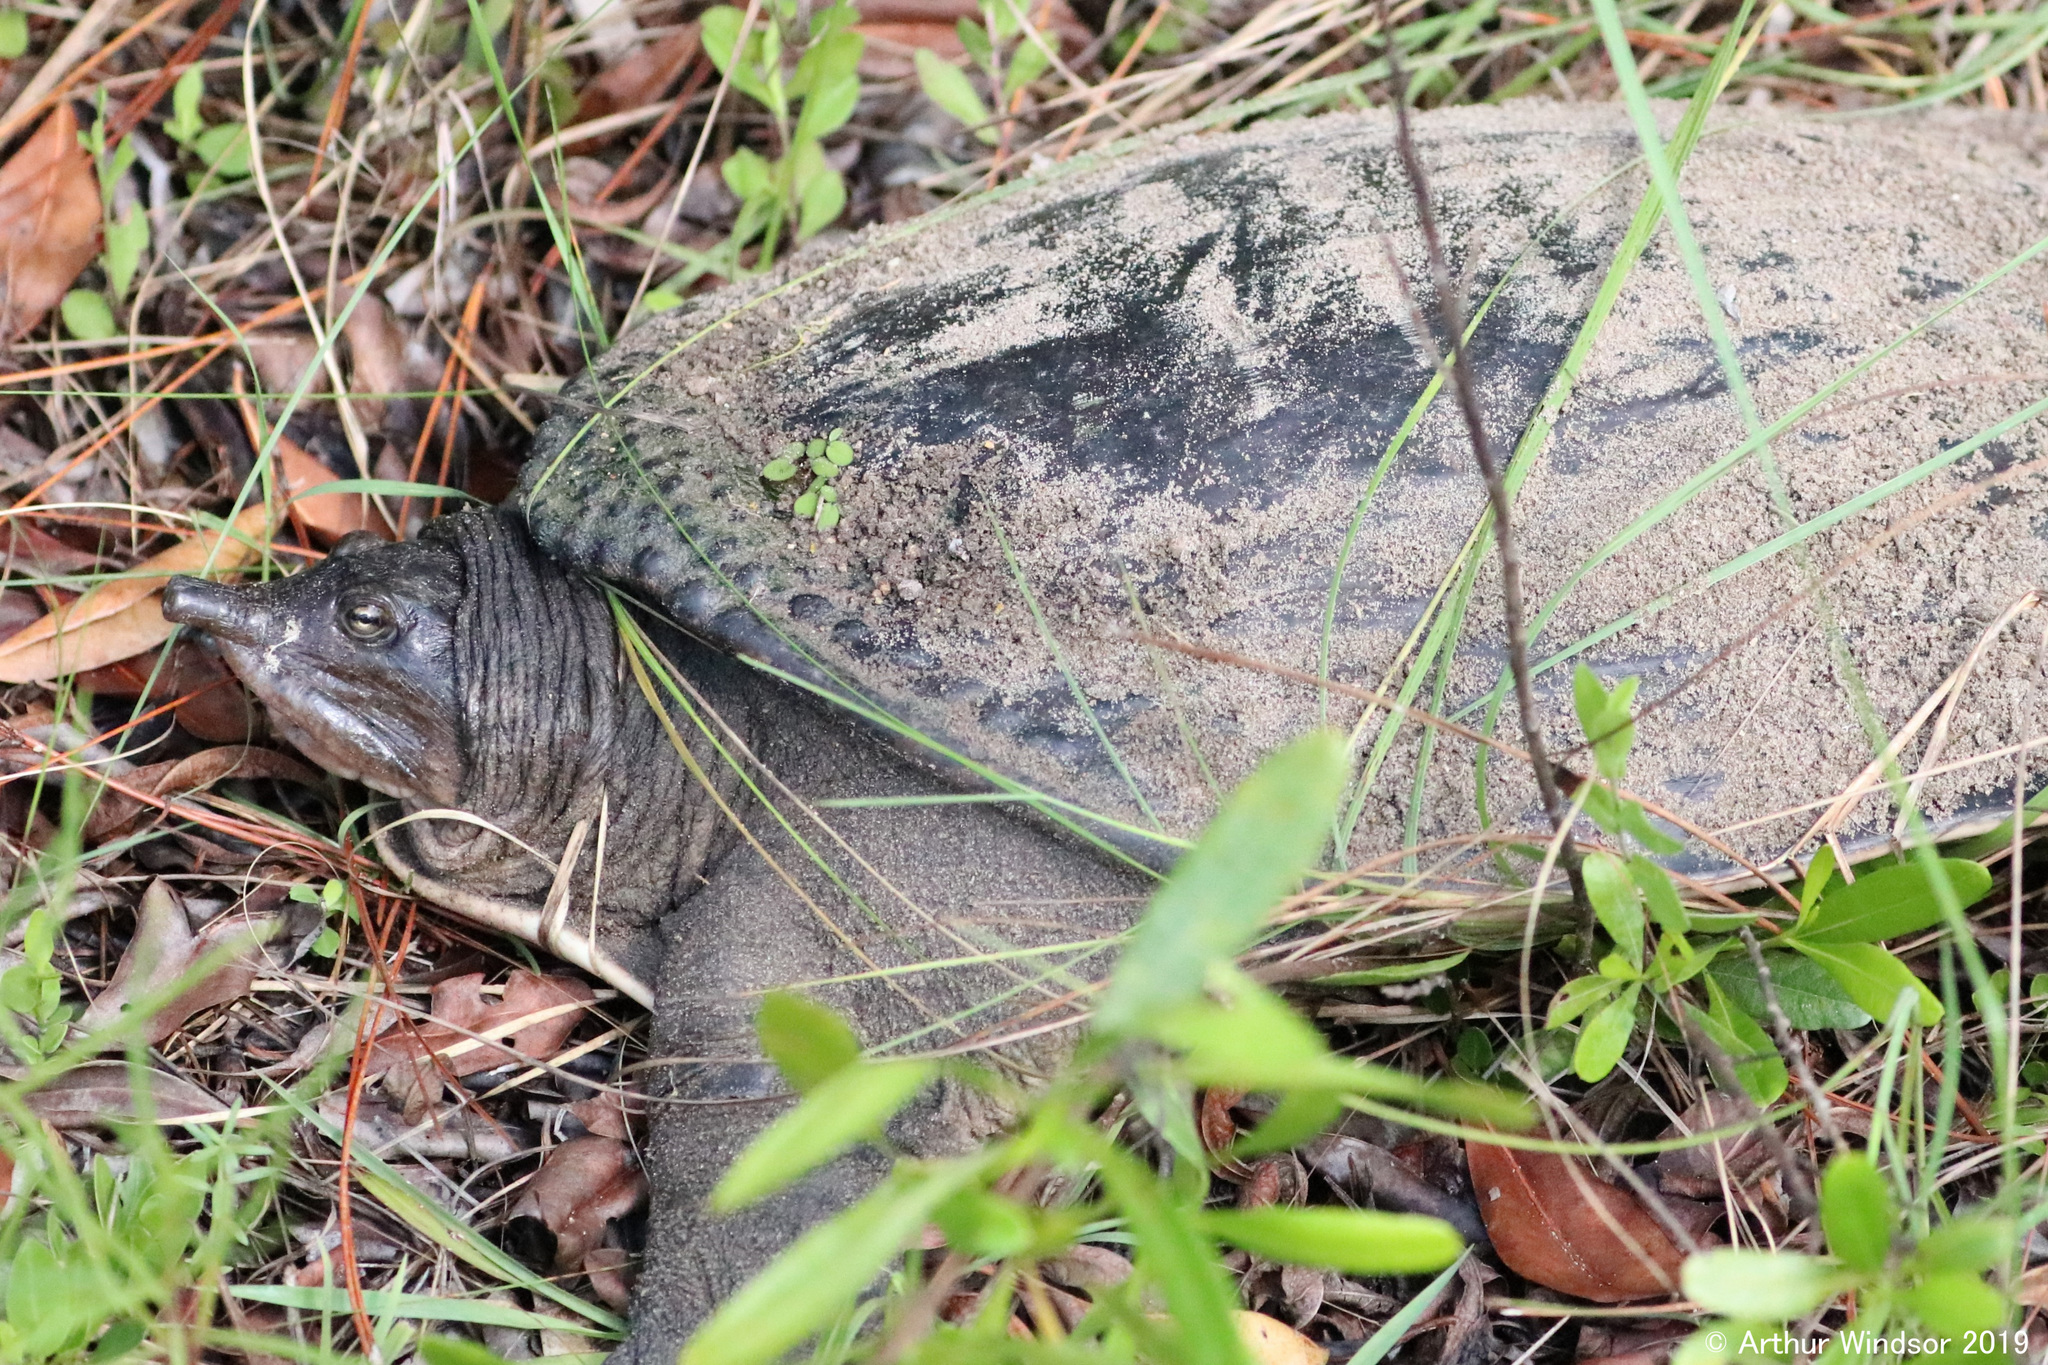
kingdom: Animalia
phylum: Chordata
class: Testudines
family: Trionychidae
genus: Apalone
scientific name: Apalone ferox
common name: Florida softshell turtle
